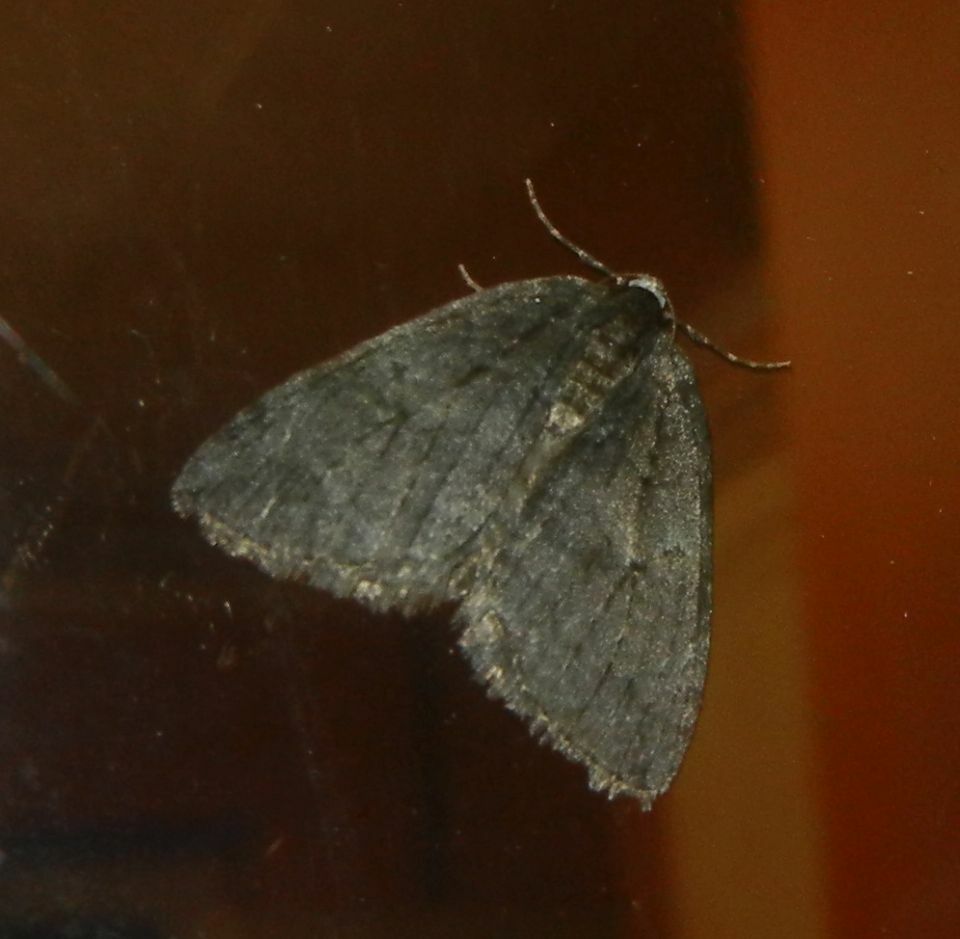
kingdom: Animalia
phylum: Arthropoda
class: Insecta
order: Lepidoptera
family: Geometridae
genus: Epirrita
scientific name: Epirrita dilutata
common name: November moth
